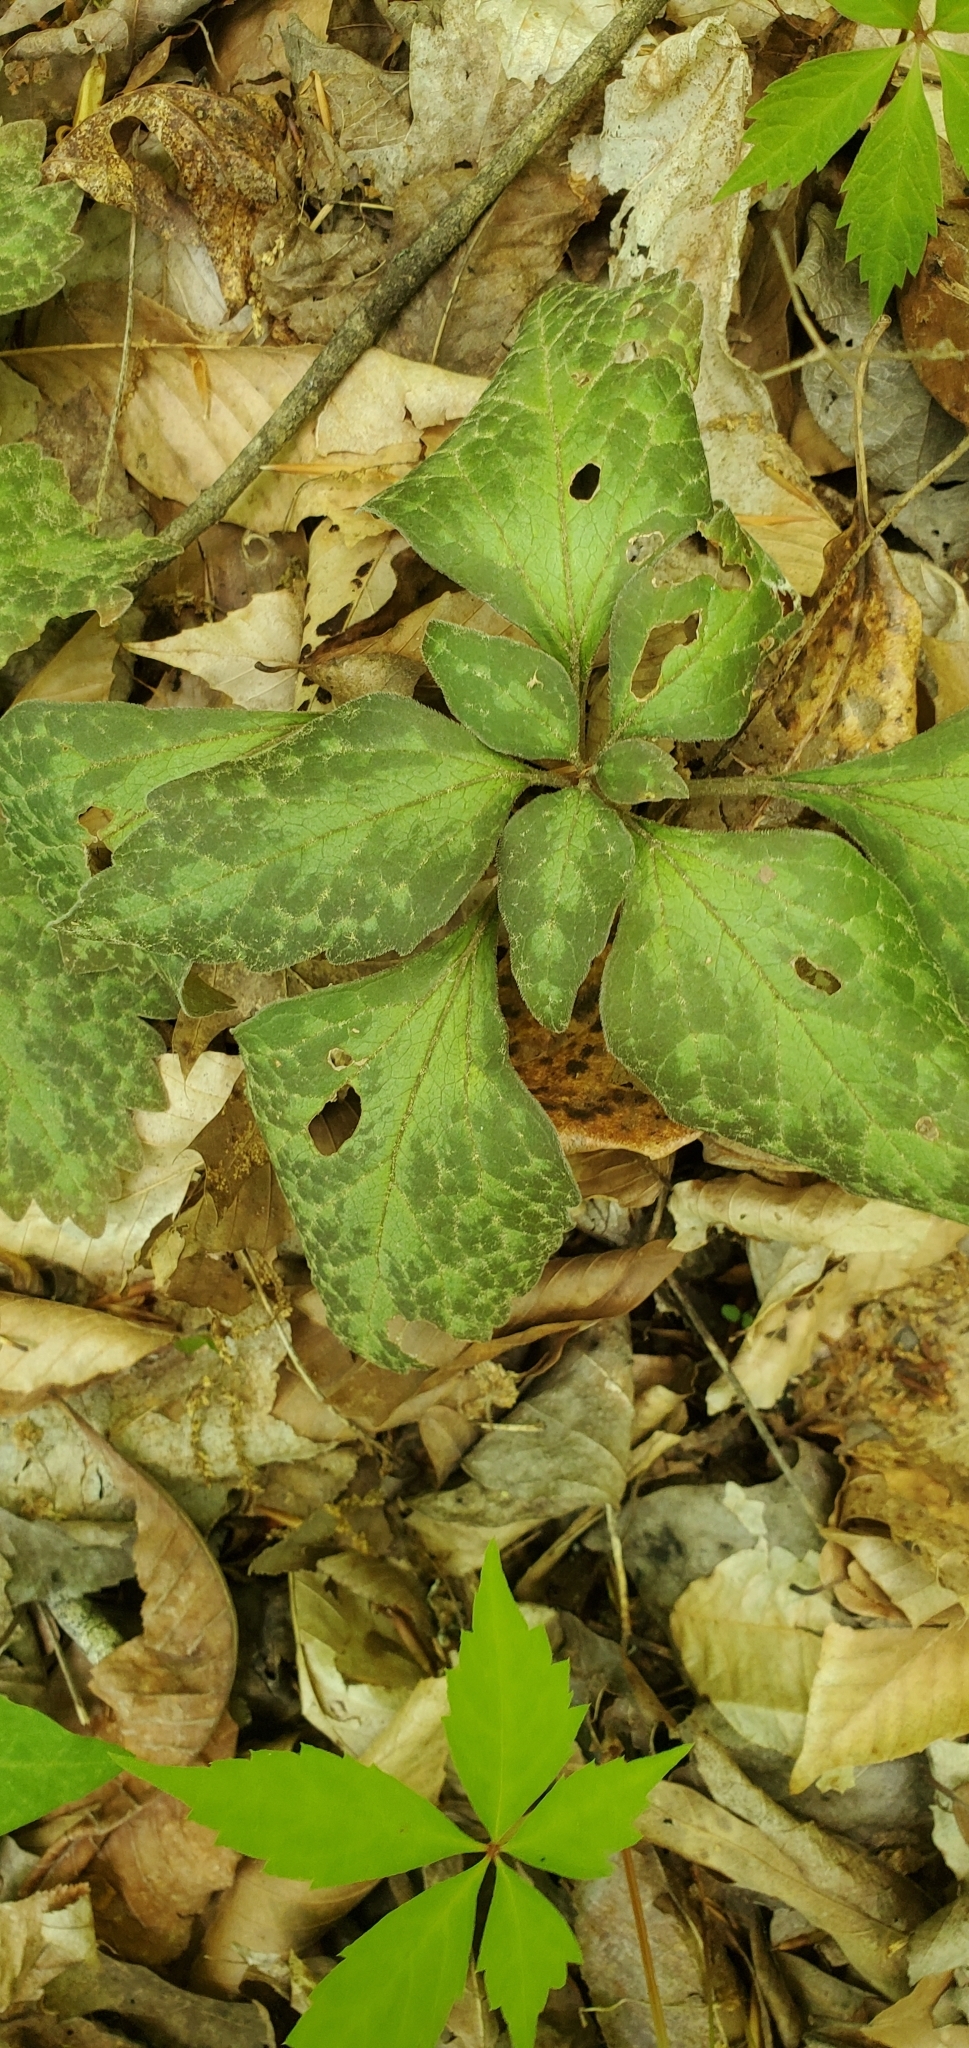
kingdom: Plantae
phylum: Tracheophyta
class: Magnoliopsida
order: Buxales
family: Buxaceae
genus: Pachysandra
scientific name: Pachysandra procumbens
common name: Mountain-spurge
